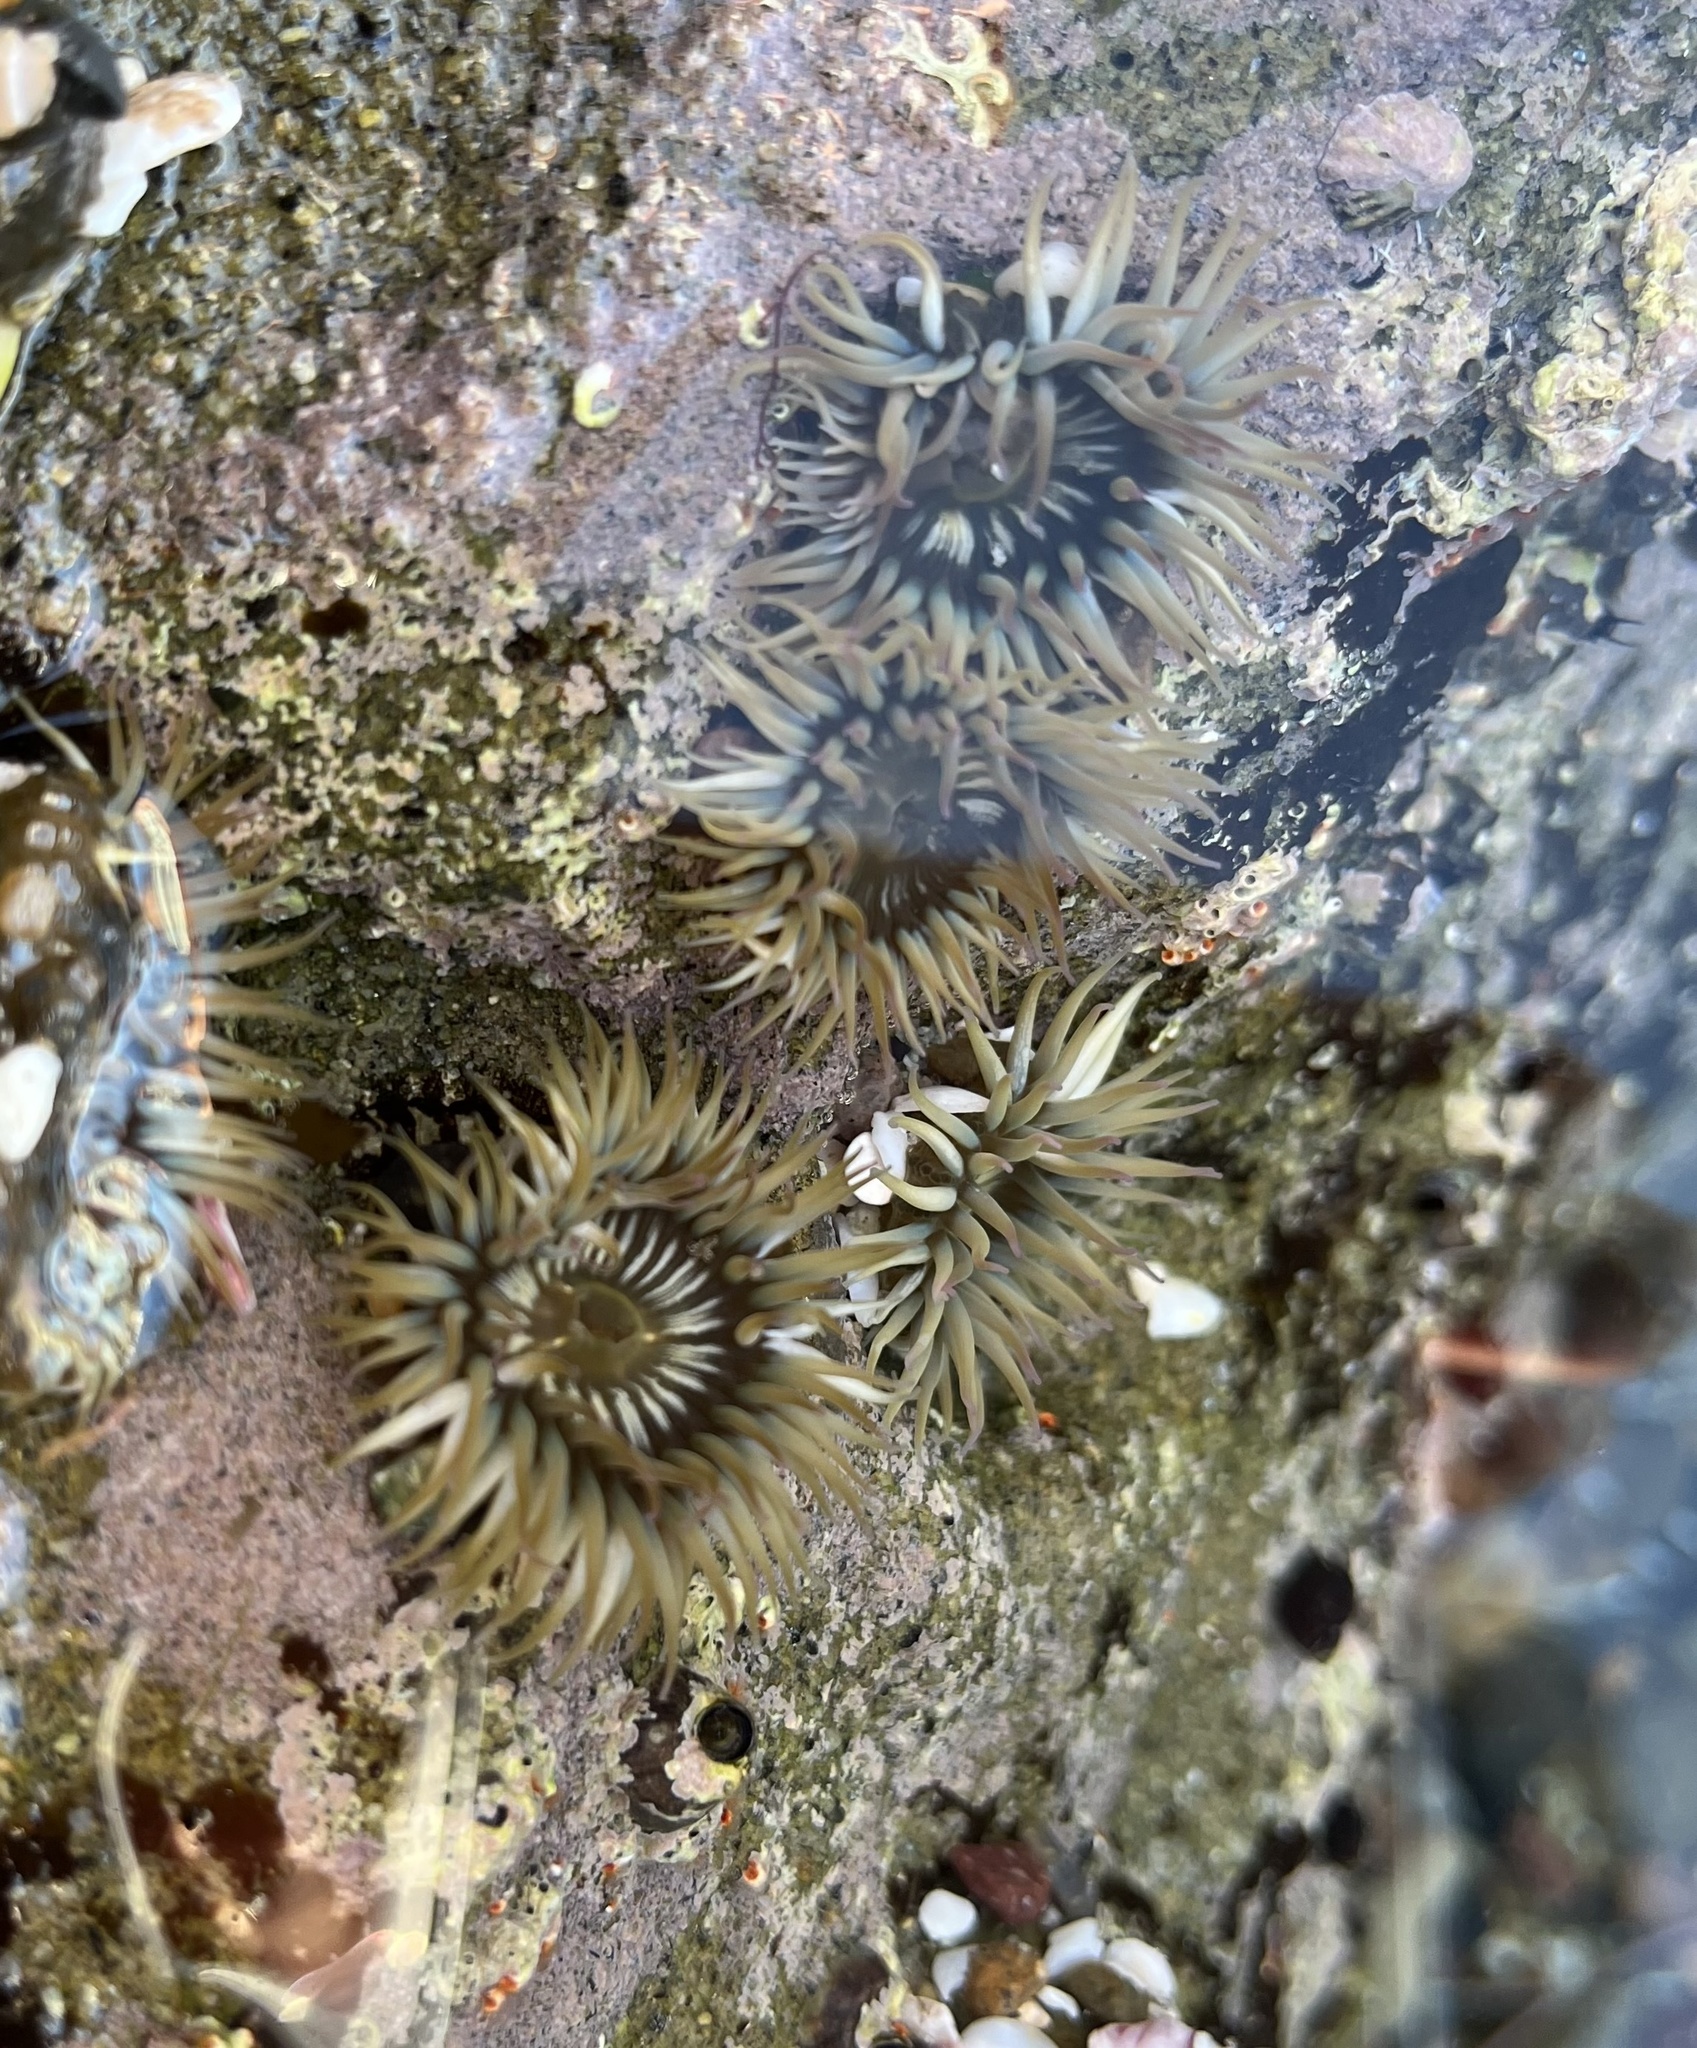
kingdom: Animalia
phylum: Cnidaria
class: Anthozoa
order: Actiniaria
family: Actiniidae
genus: Anthopleura
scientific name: Anthopleura elegantissima
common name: Clonal anemone
